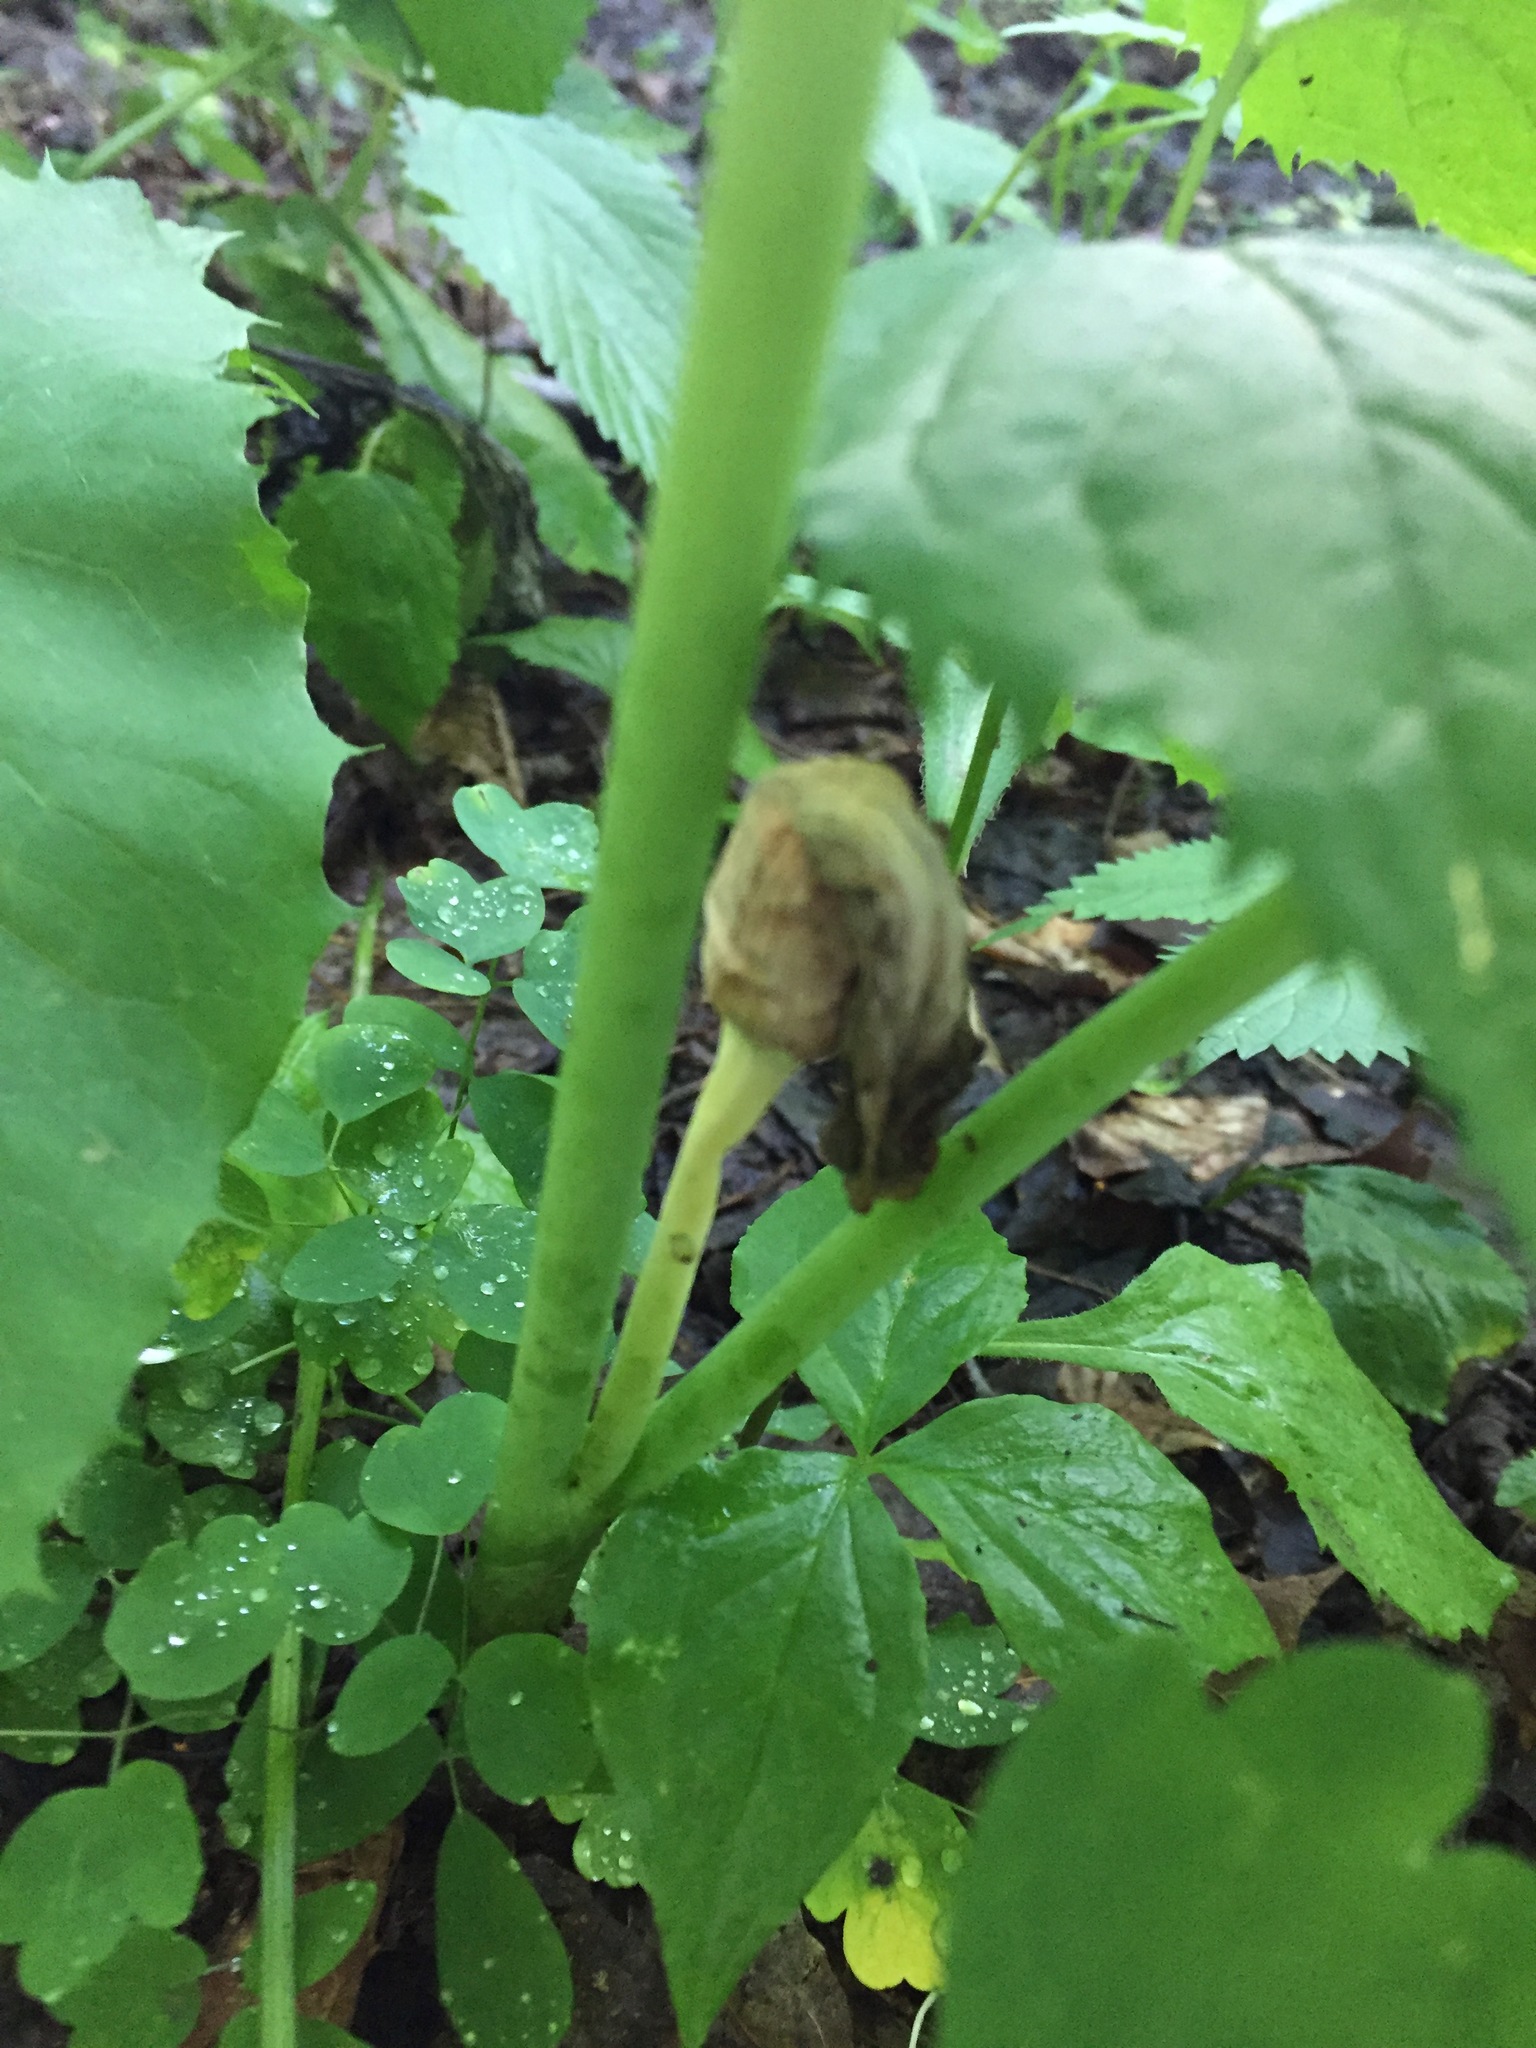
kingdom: Plantae
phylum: Tracheophyta
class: Liliopsida
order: Alismatales
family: Araceae
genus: Arisaema
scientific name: Arisaema triphyllum
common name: Jack-in-the-pulpit
